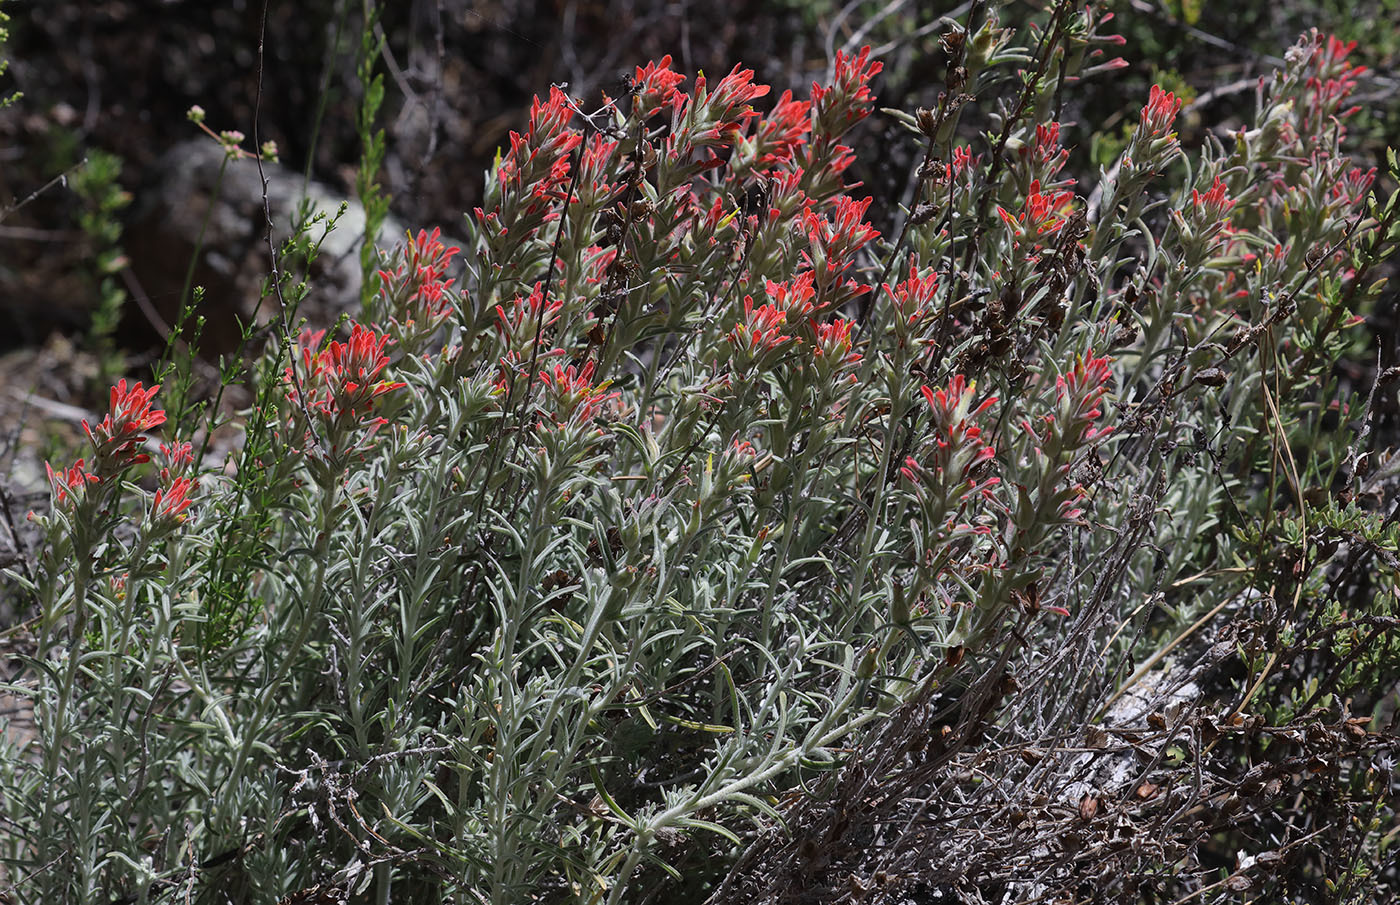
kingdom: Plantae
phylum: Tracheophyta
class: Magnoliopsida
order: Lamiales
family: Orobanchaceae
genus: Castilleja
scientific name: Castilleja foliolosa
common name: Woolly indian paintbrush
